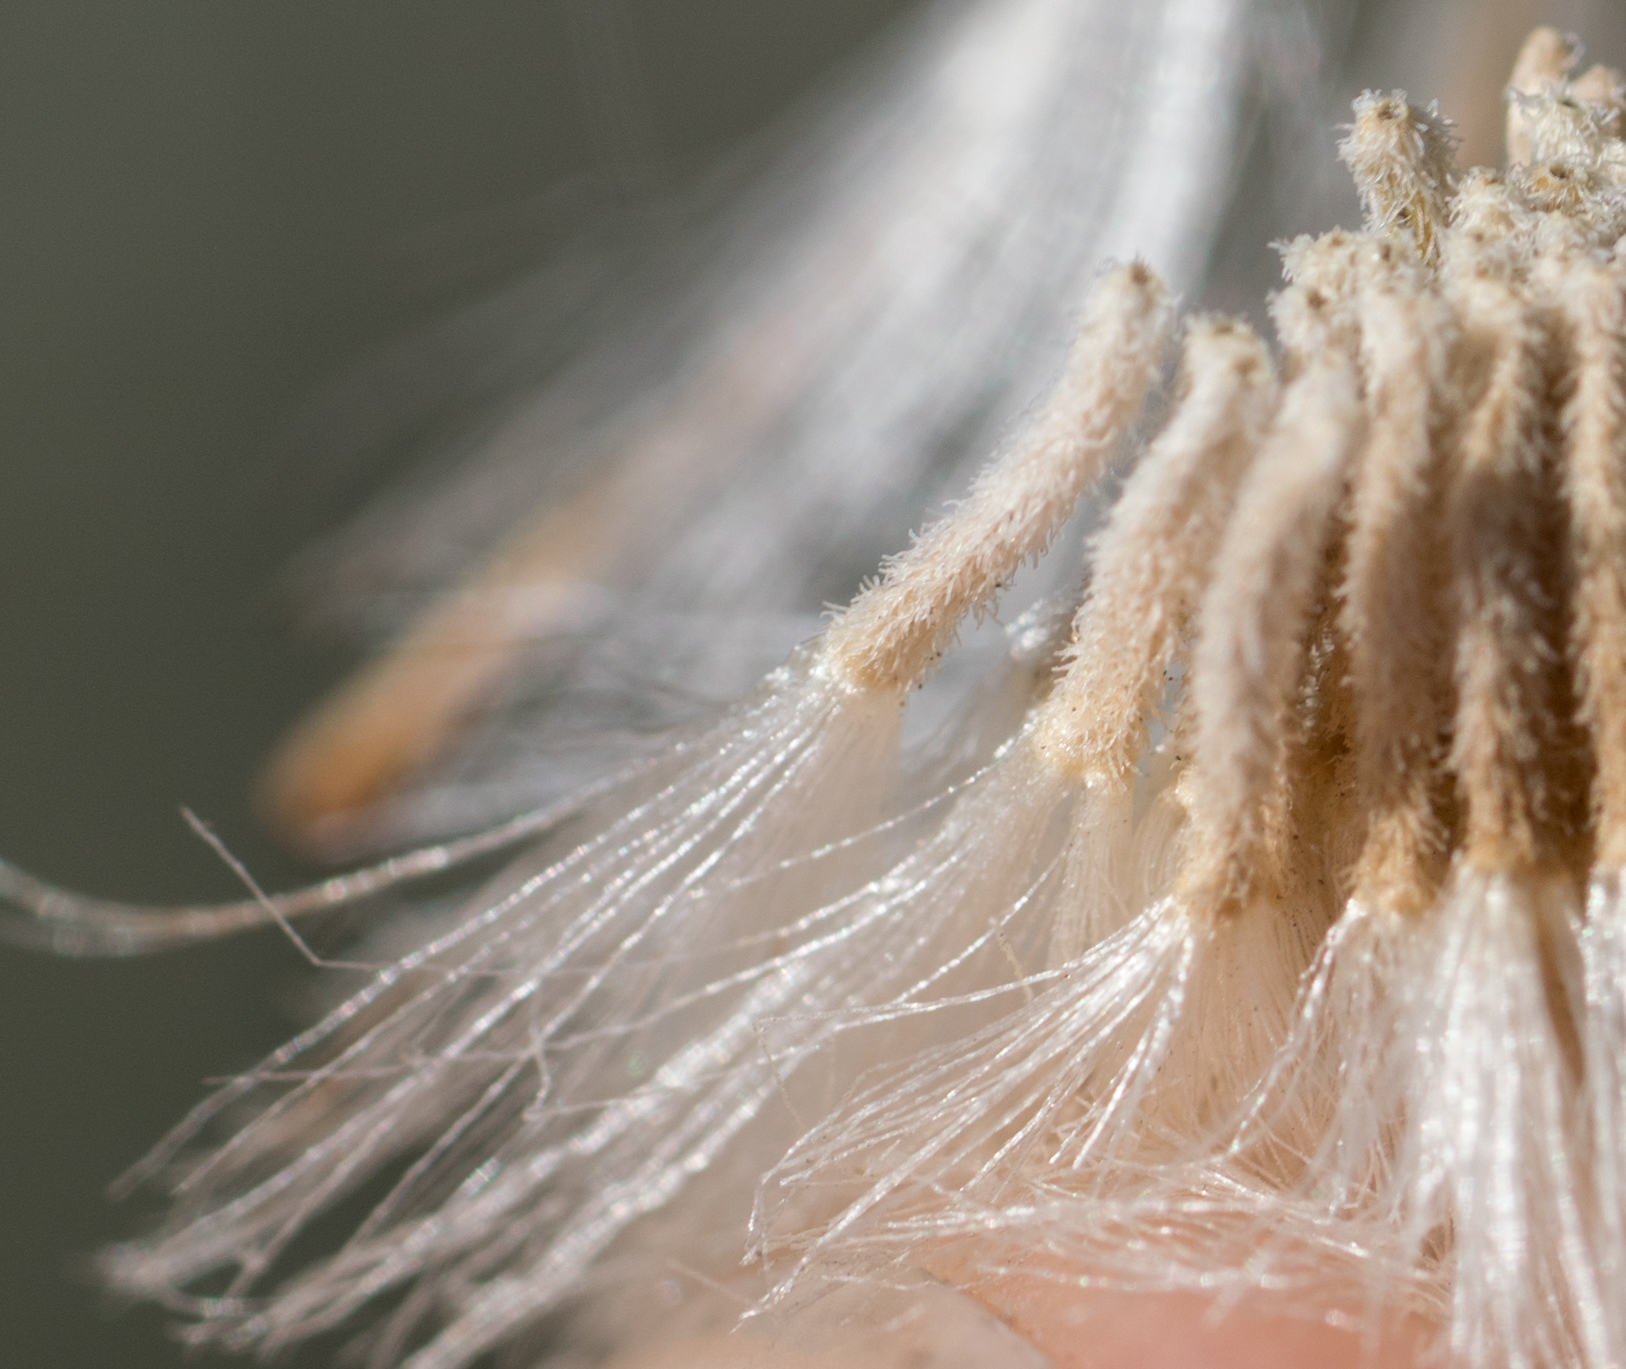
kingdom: Plantae
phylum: Tracheophyta
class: Magnoliopsida
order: Asterales
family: Asteraceae
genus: Senecio
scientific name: Senecio flaccidus
